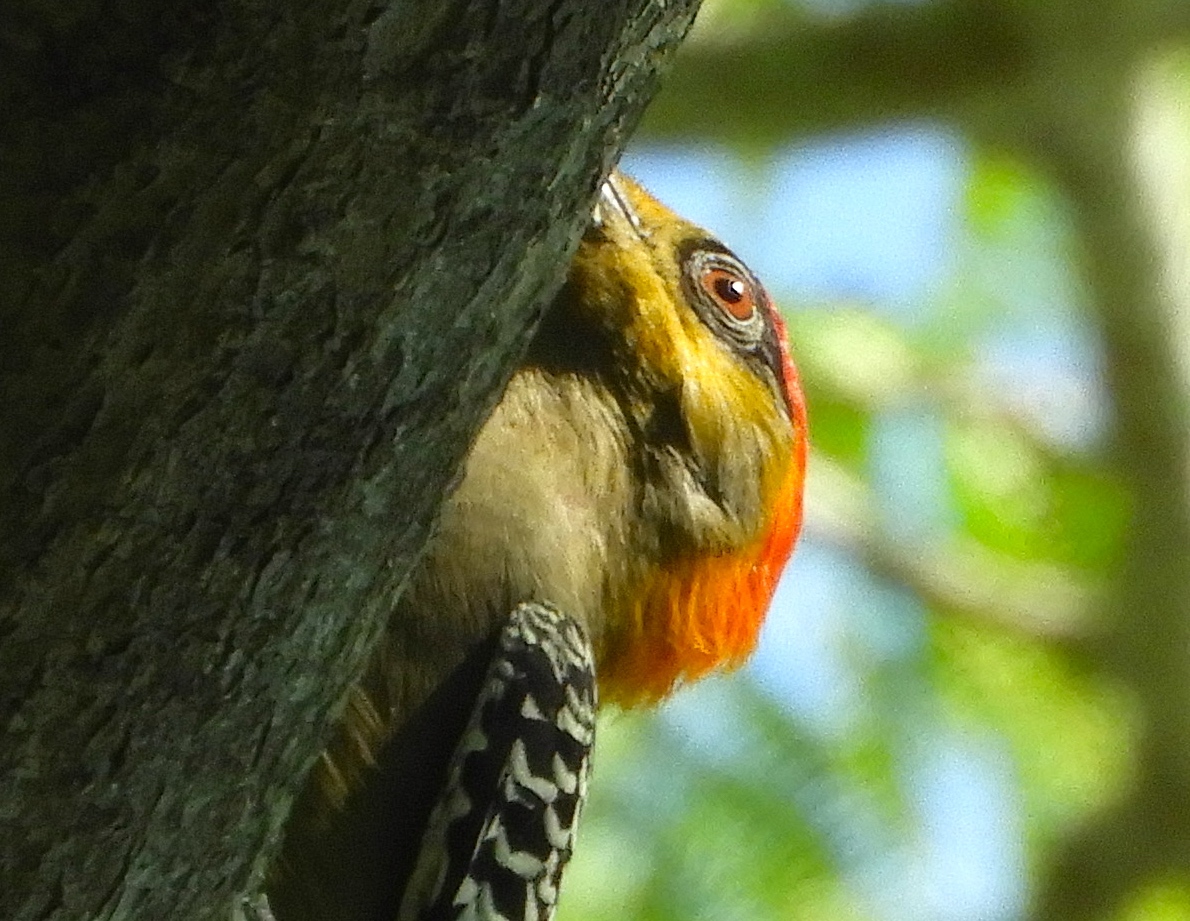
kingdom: Animalia
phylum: Chordata
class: Aves
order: Piciformes
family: Picidae
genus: Melanerpes
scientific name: Melanerpes chrysogenys
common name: Golden-cheeked woodpecker
